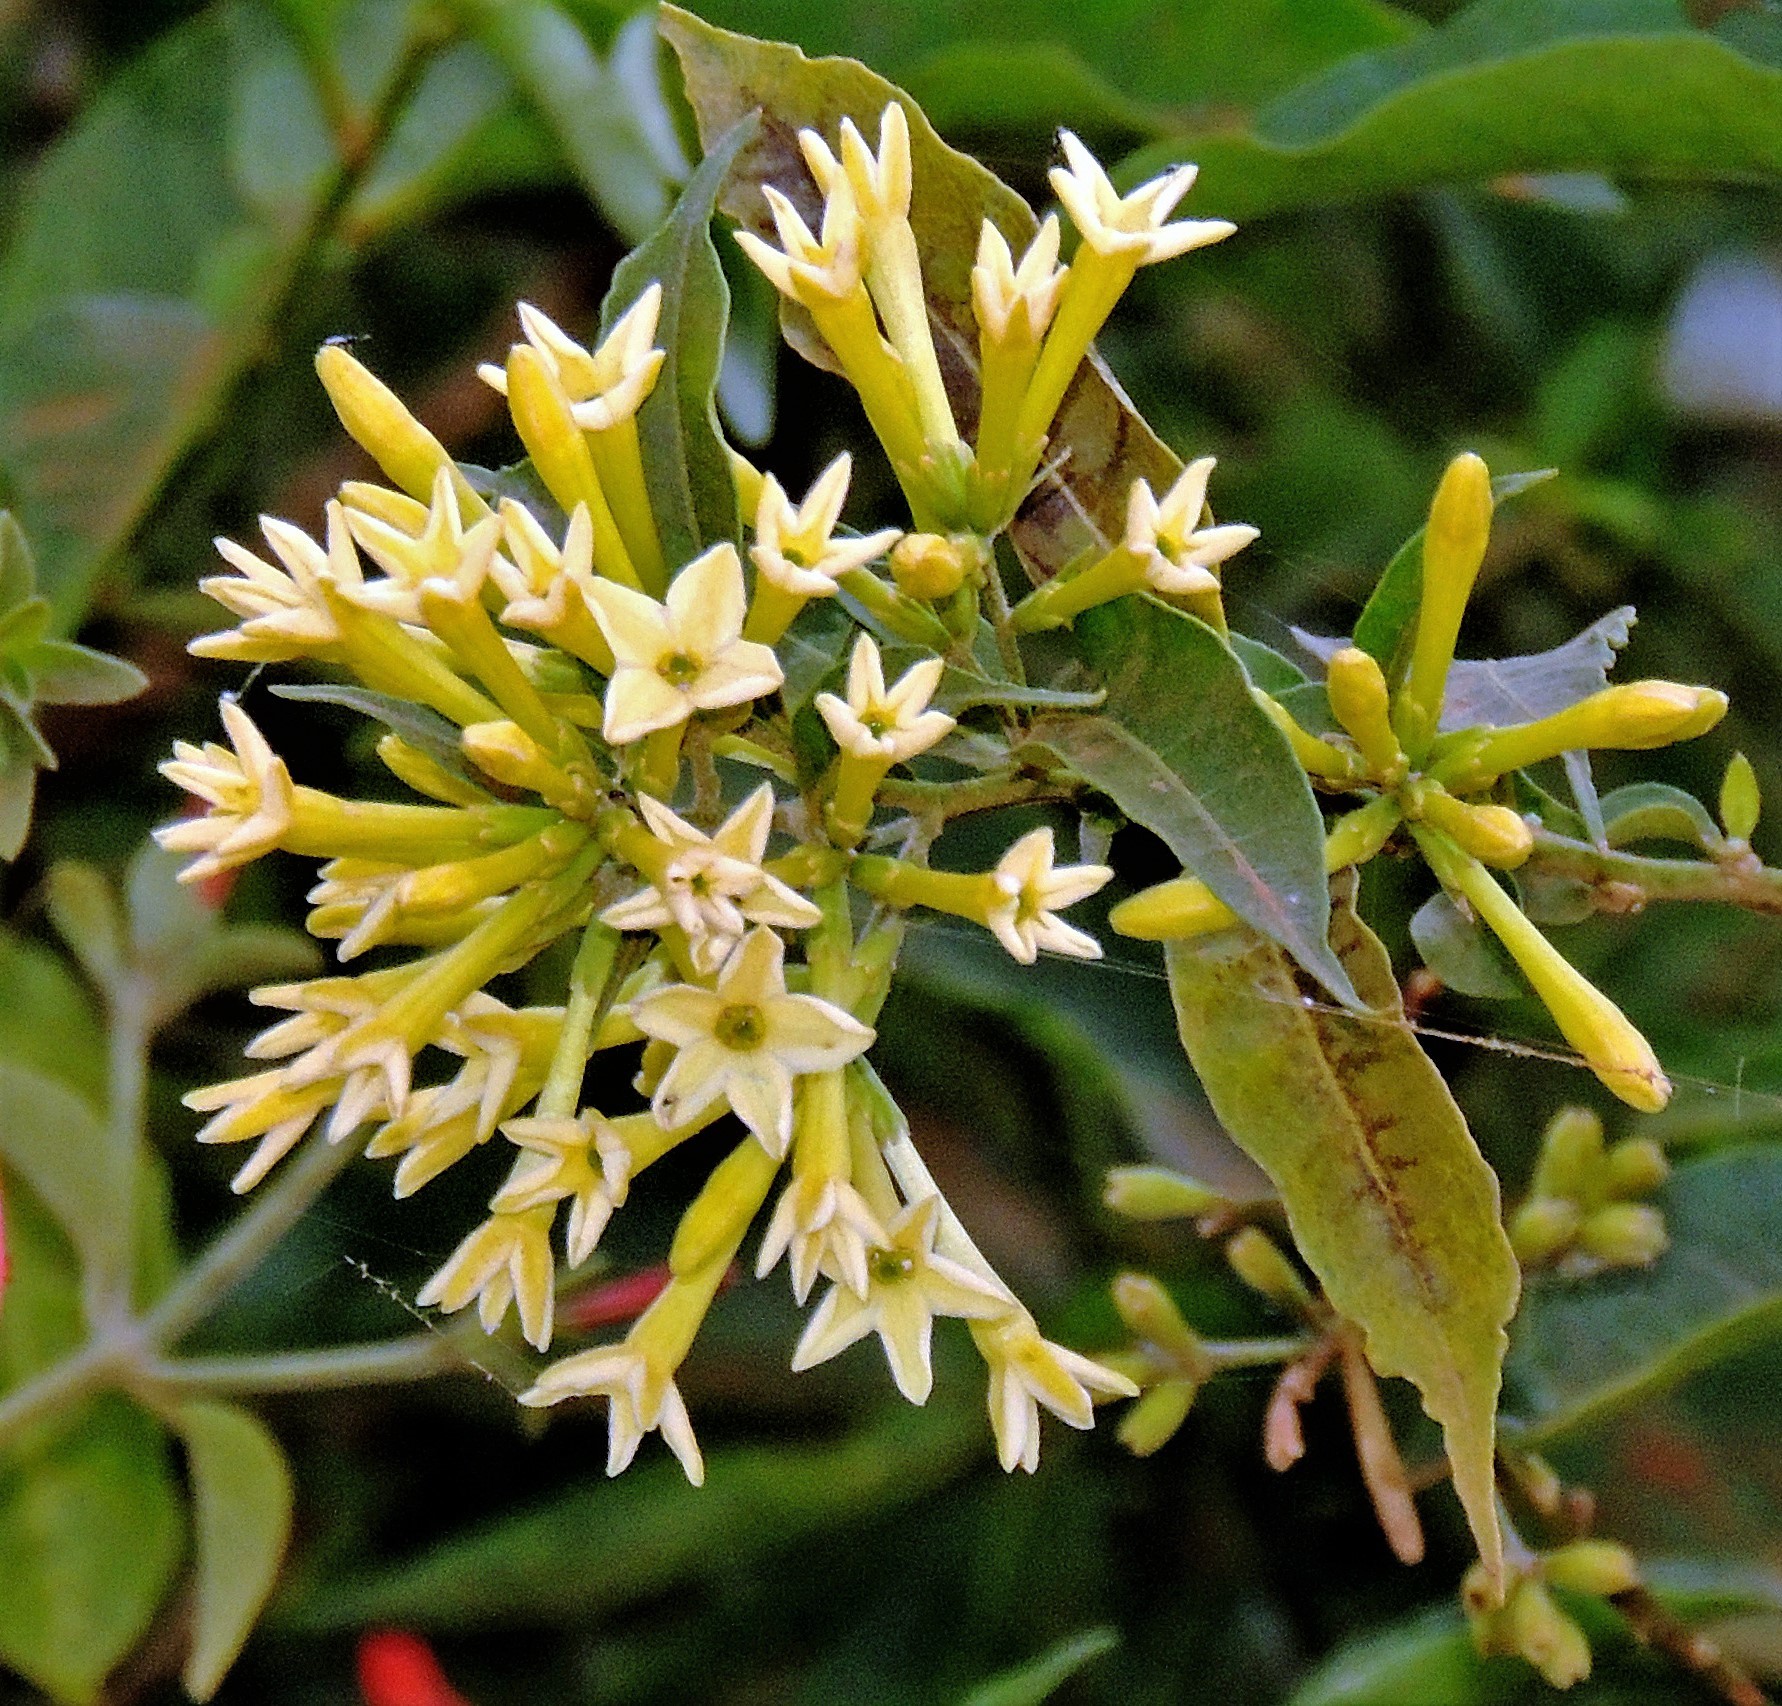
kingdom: Plantae
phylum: Tracheophyta
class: Magnoliopsida
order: Solanales
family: Solanaceae
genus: Cestrum
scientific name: Cestrum parqui
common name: Chilean cestrum
